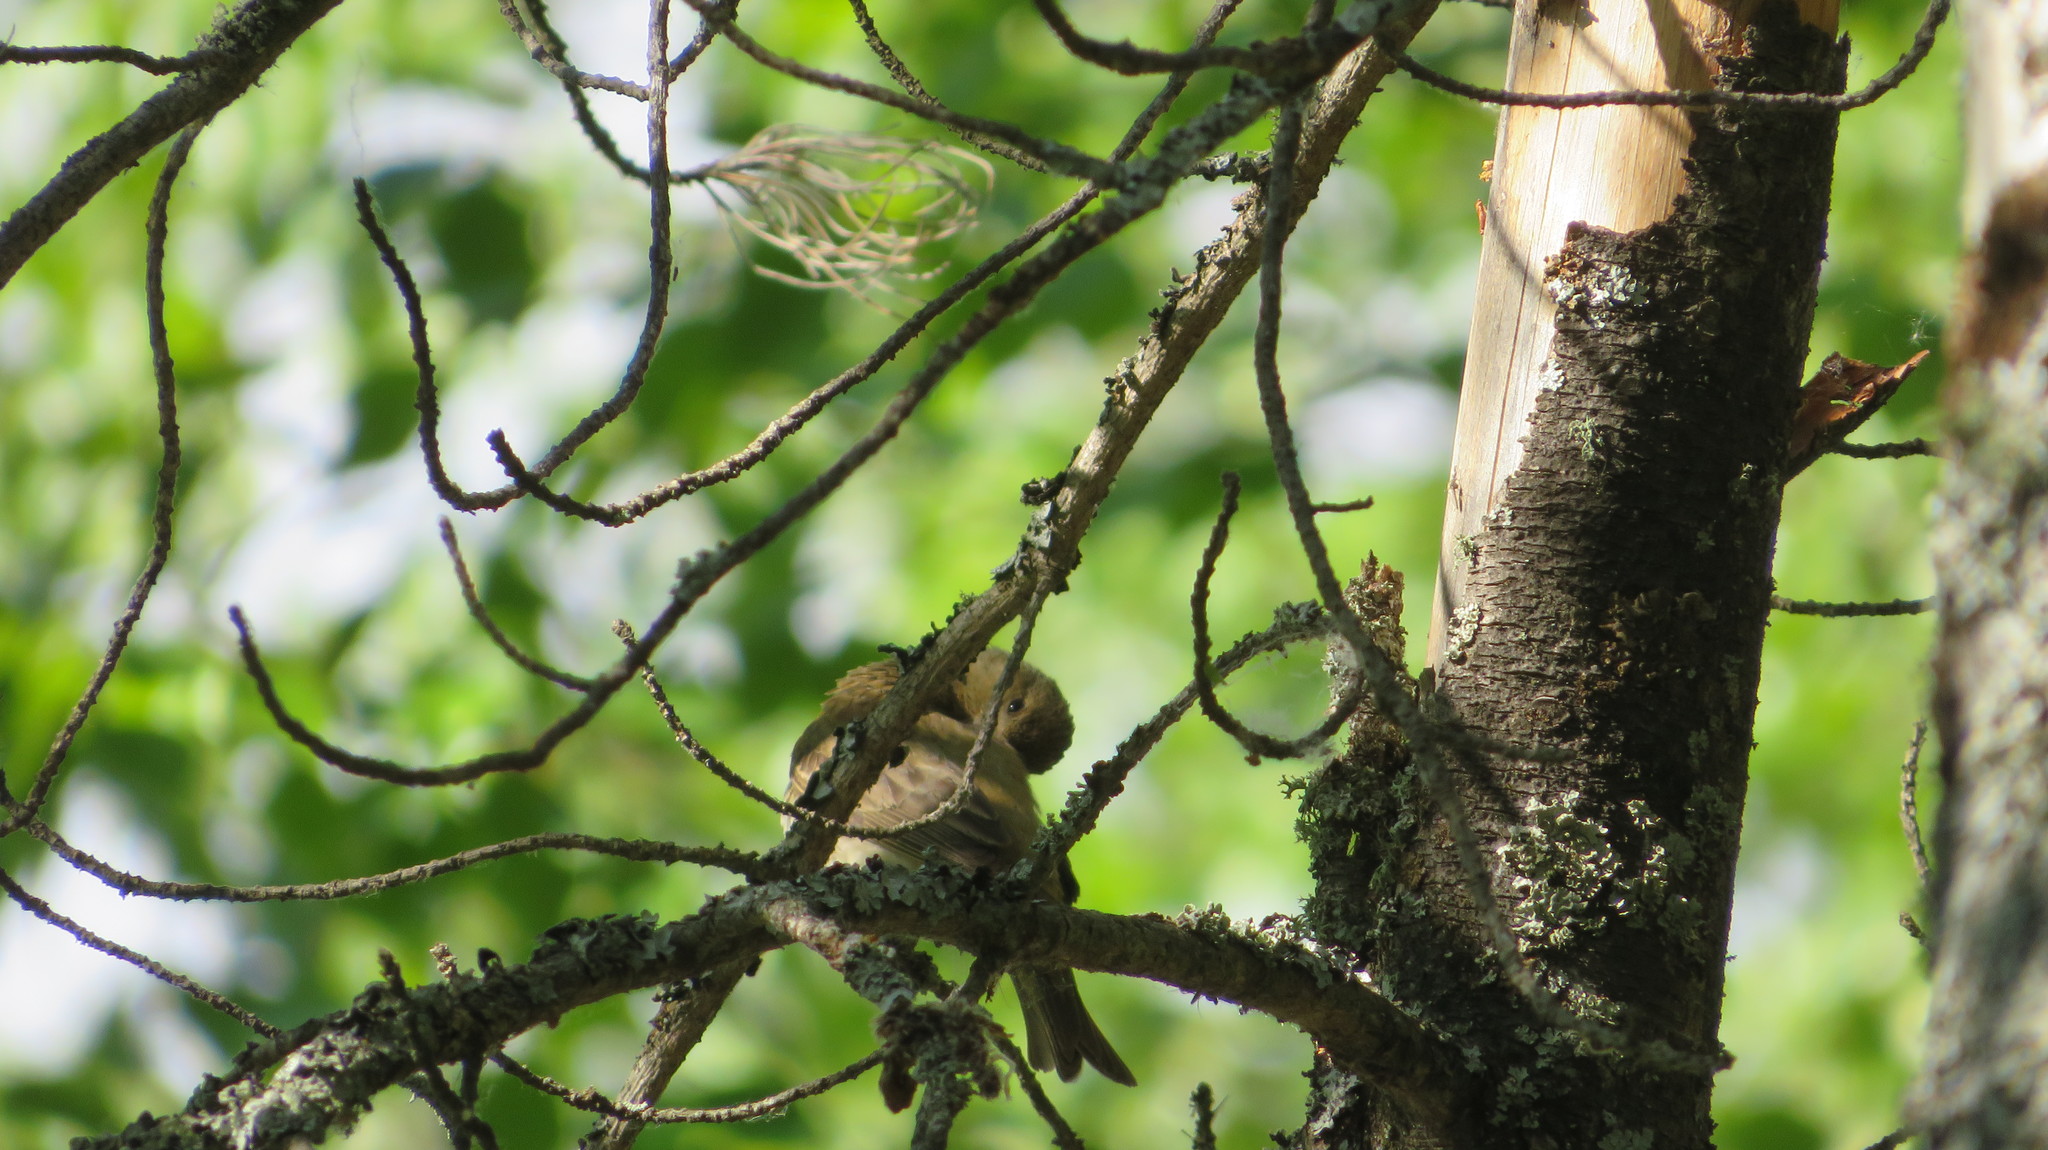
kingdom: Animalia
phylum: Chordata
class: Aves
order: Passeriformes
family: Fringillidae
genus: Carpodacus
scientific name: Carpodacus erythrinus
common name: Common rosefinch
